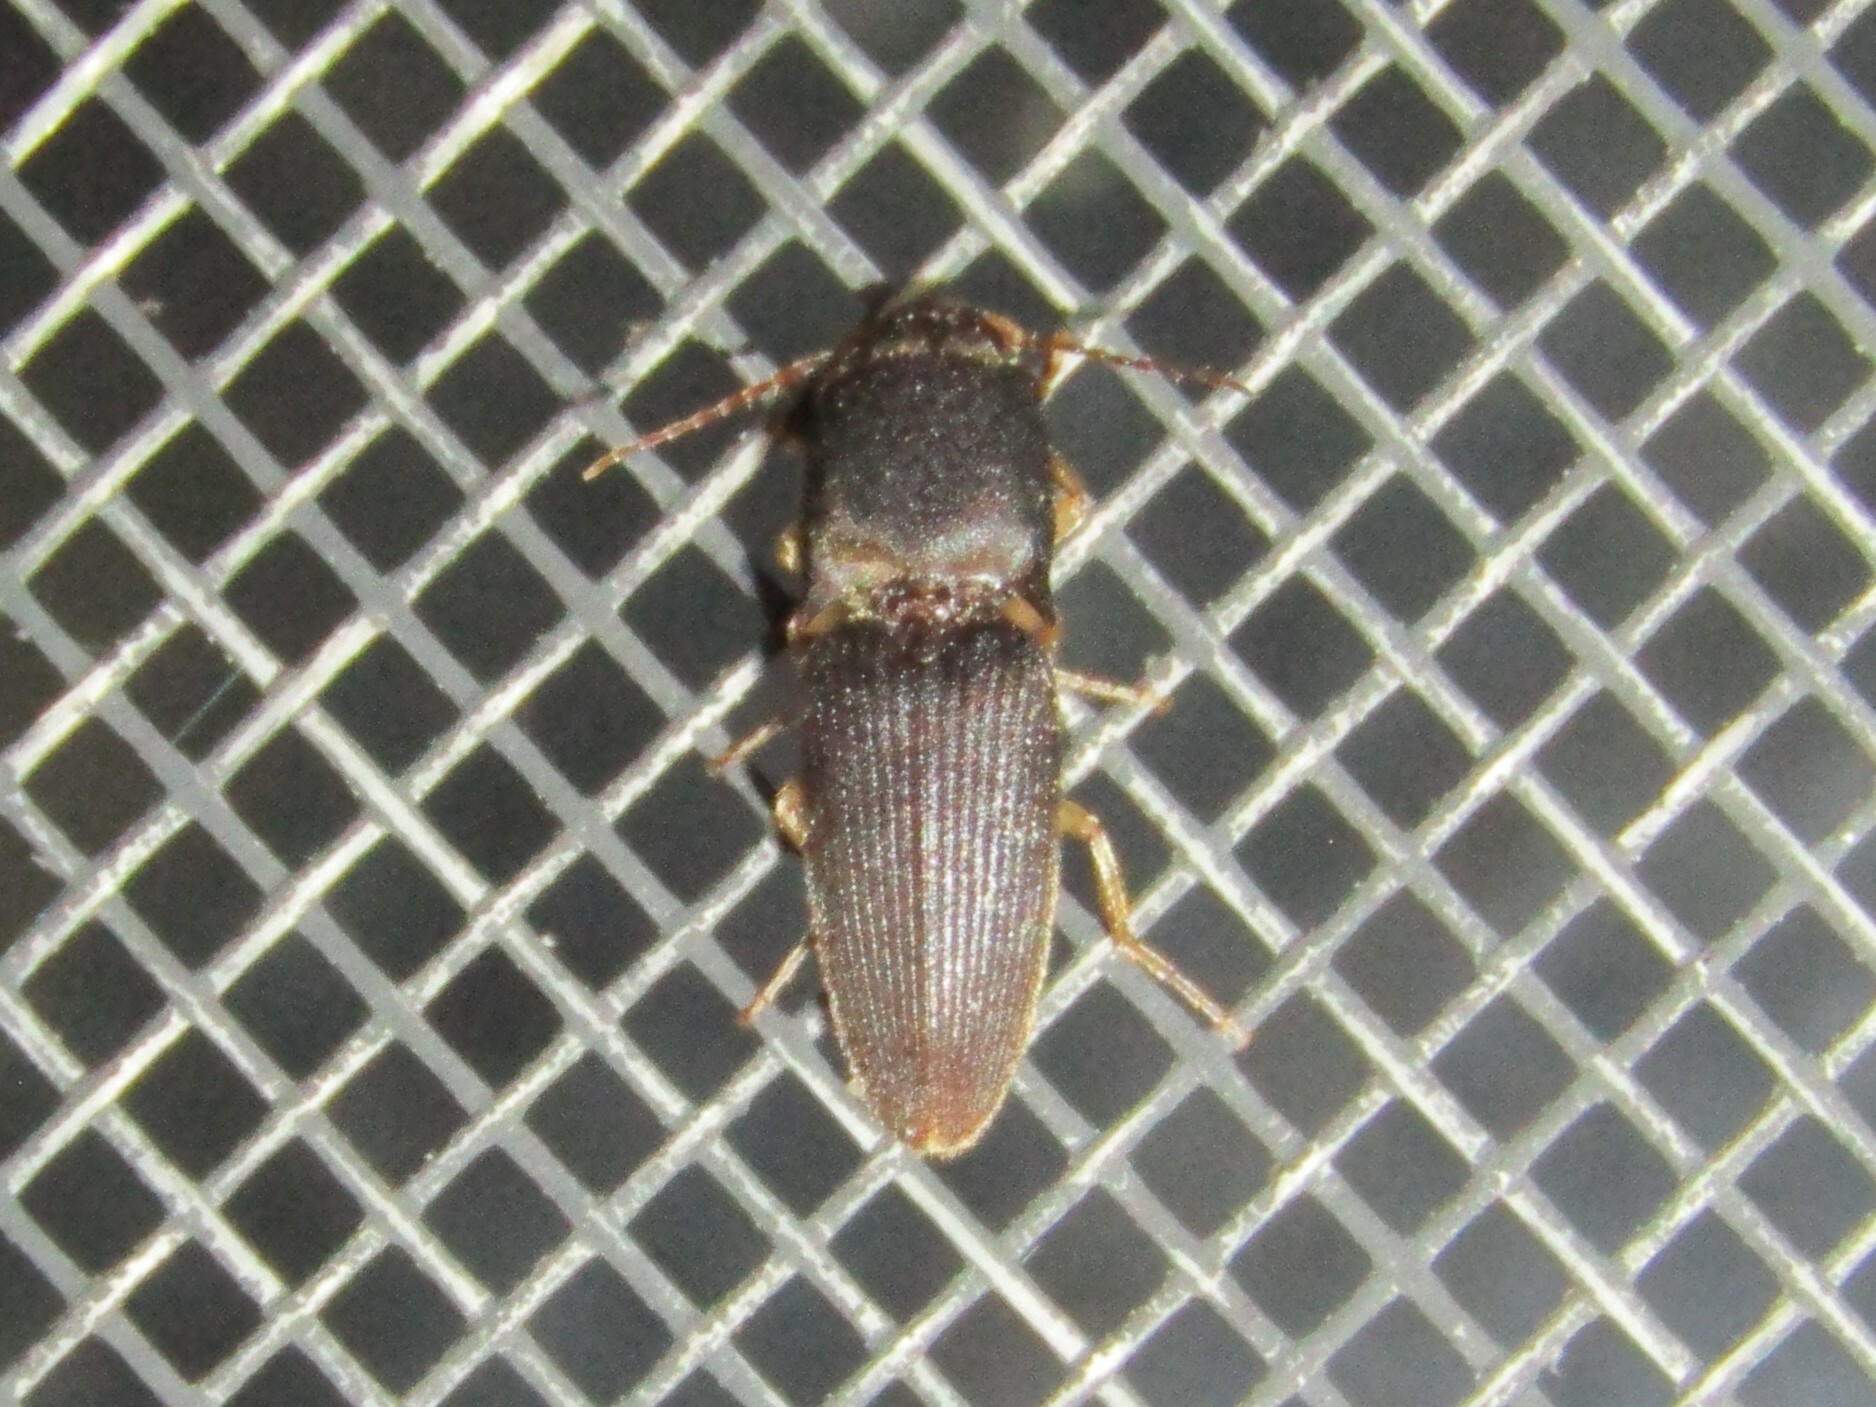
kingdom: Animalia
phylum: Arthropoda
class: Insecta
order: Coleoptera
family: Elateridae
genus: Heteroderes
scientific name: Heteroderes amplicollis
